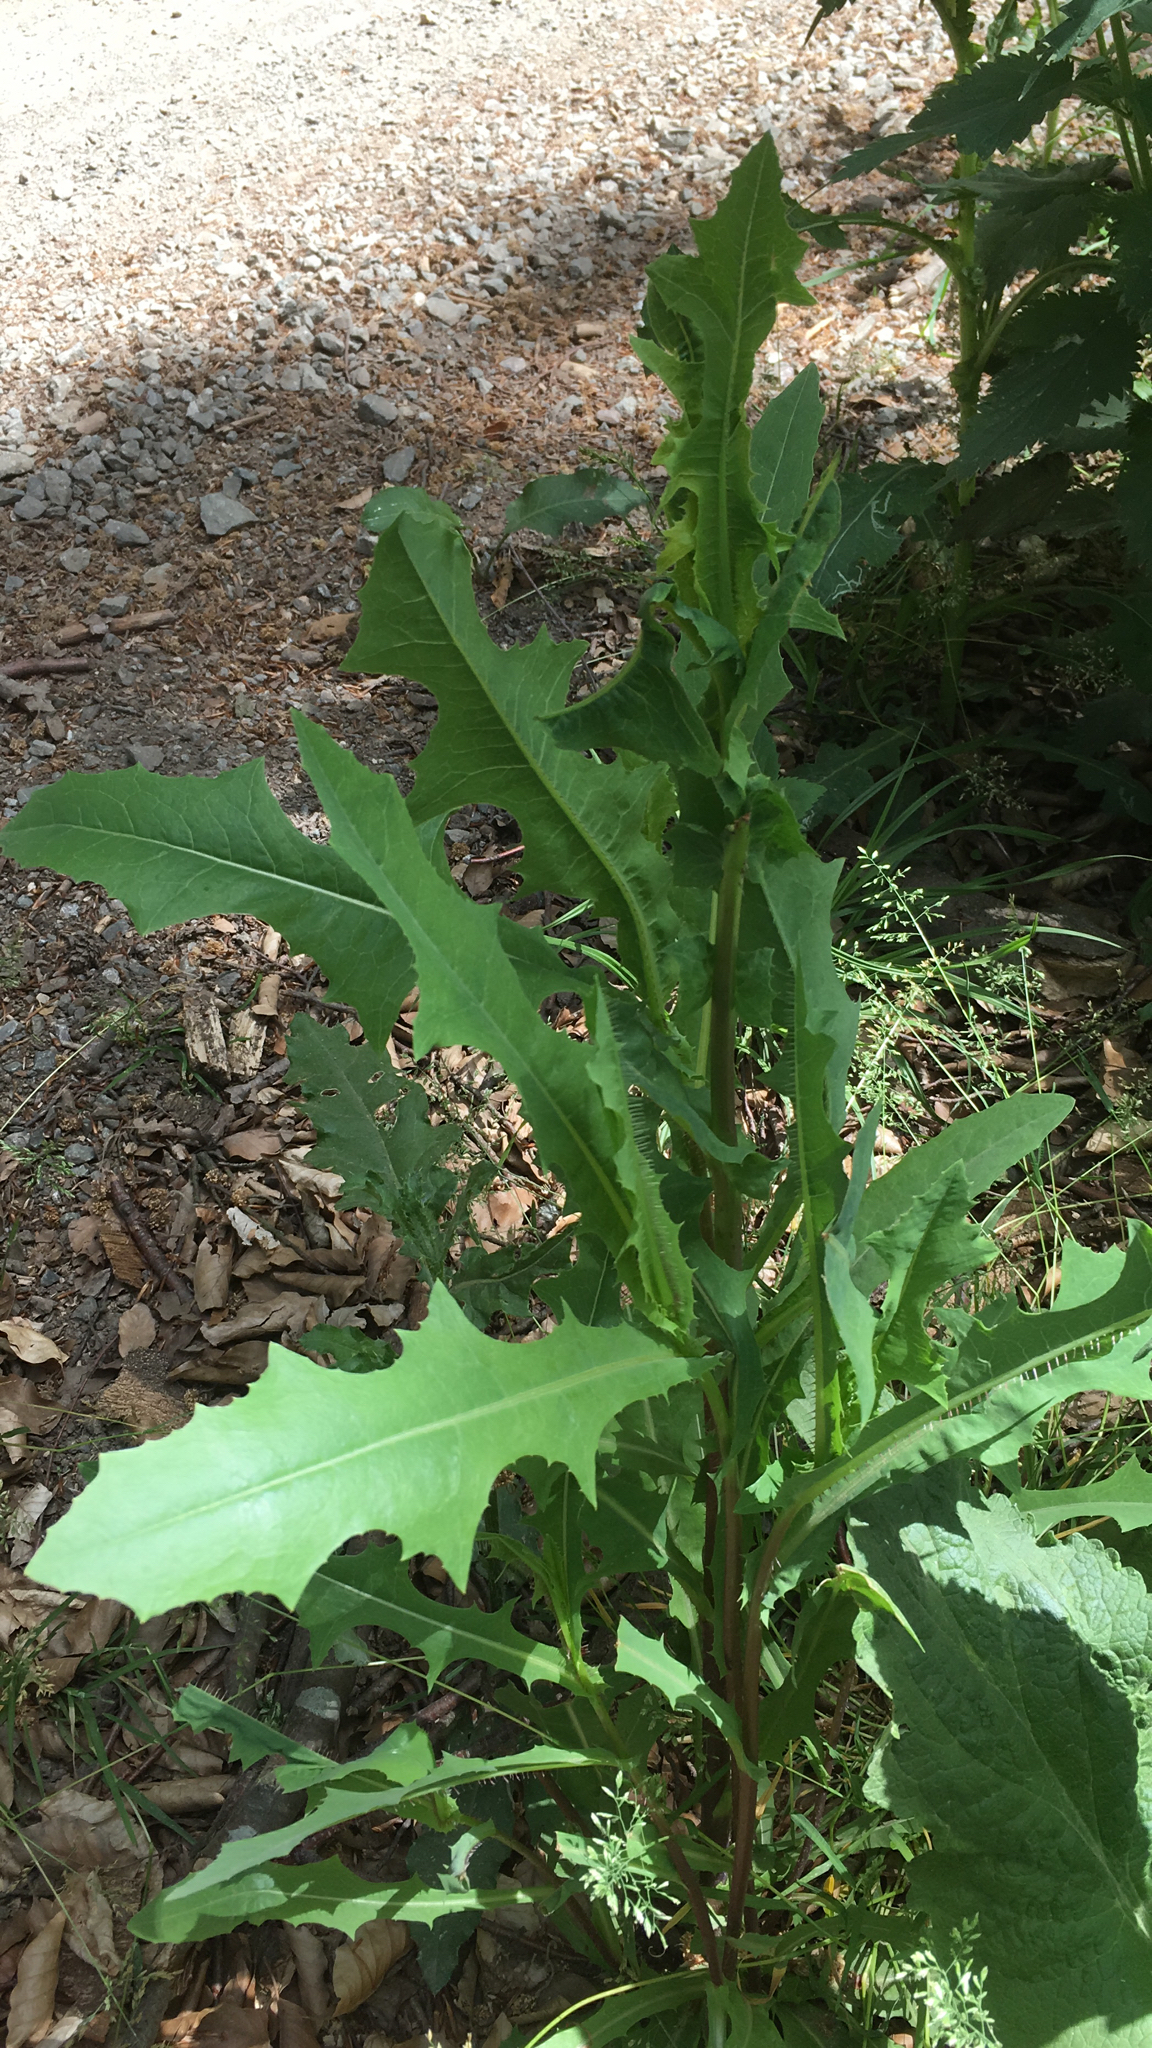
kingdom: Plantae
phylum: Tracheophyta
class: Magnoliopsida
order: Asterales
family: Asteraceae
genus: Lactuca
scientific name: Lactuca serriola
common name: Prickly lettuce
